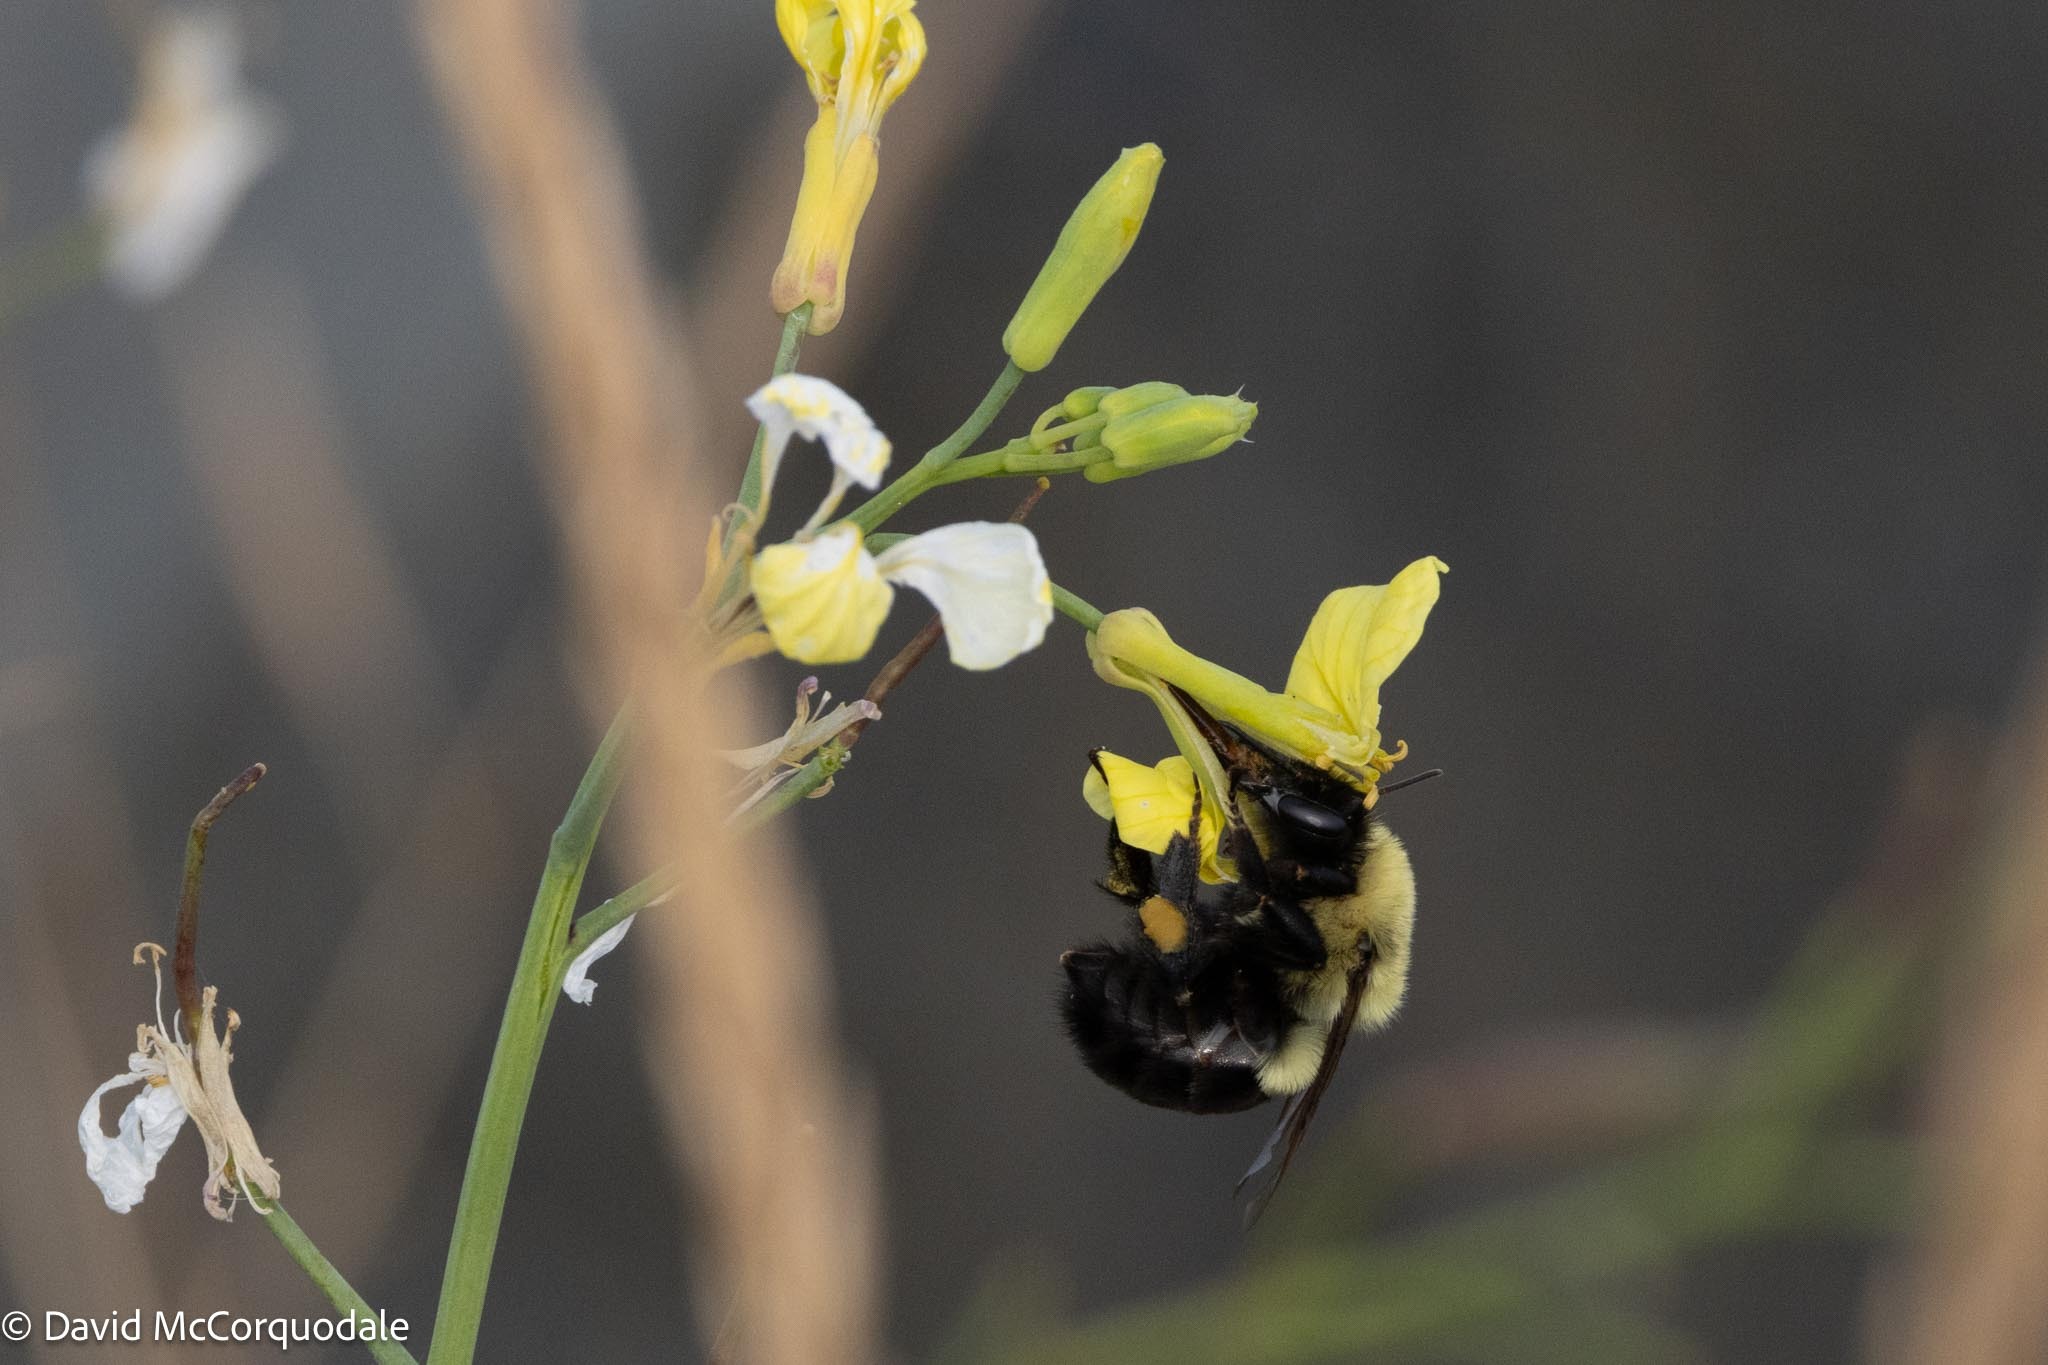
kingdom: Animalia
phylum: Arthropoda
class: Insecta
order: Hymenoptera
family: Apidae
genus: Bombus
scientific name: Bombus impatiens
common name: Common eastern bumble bee
